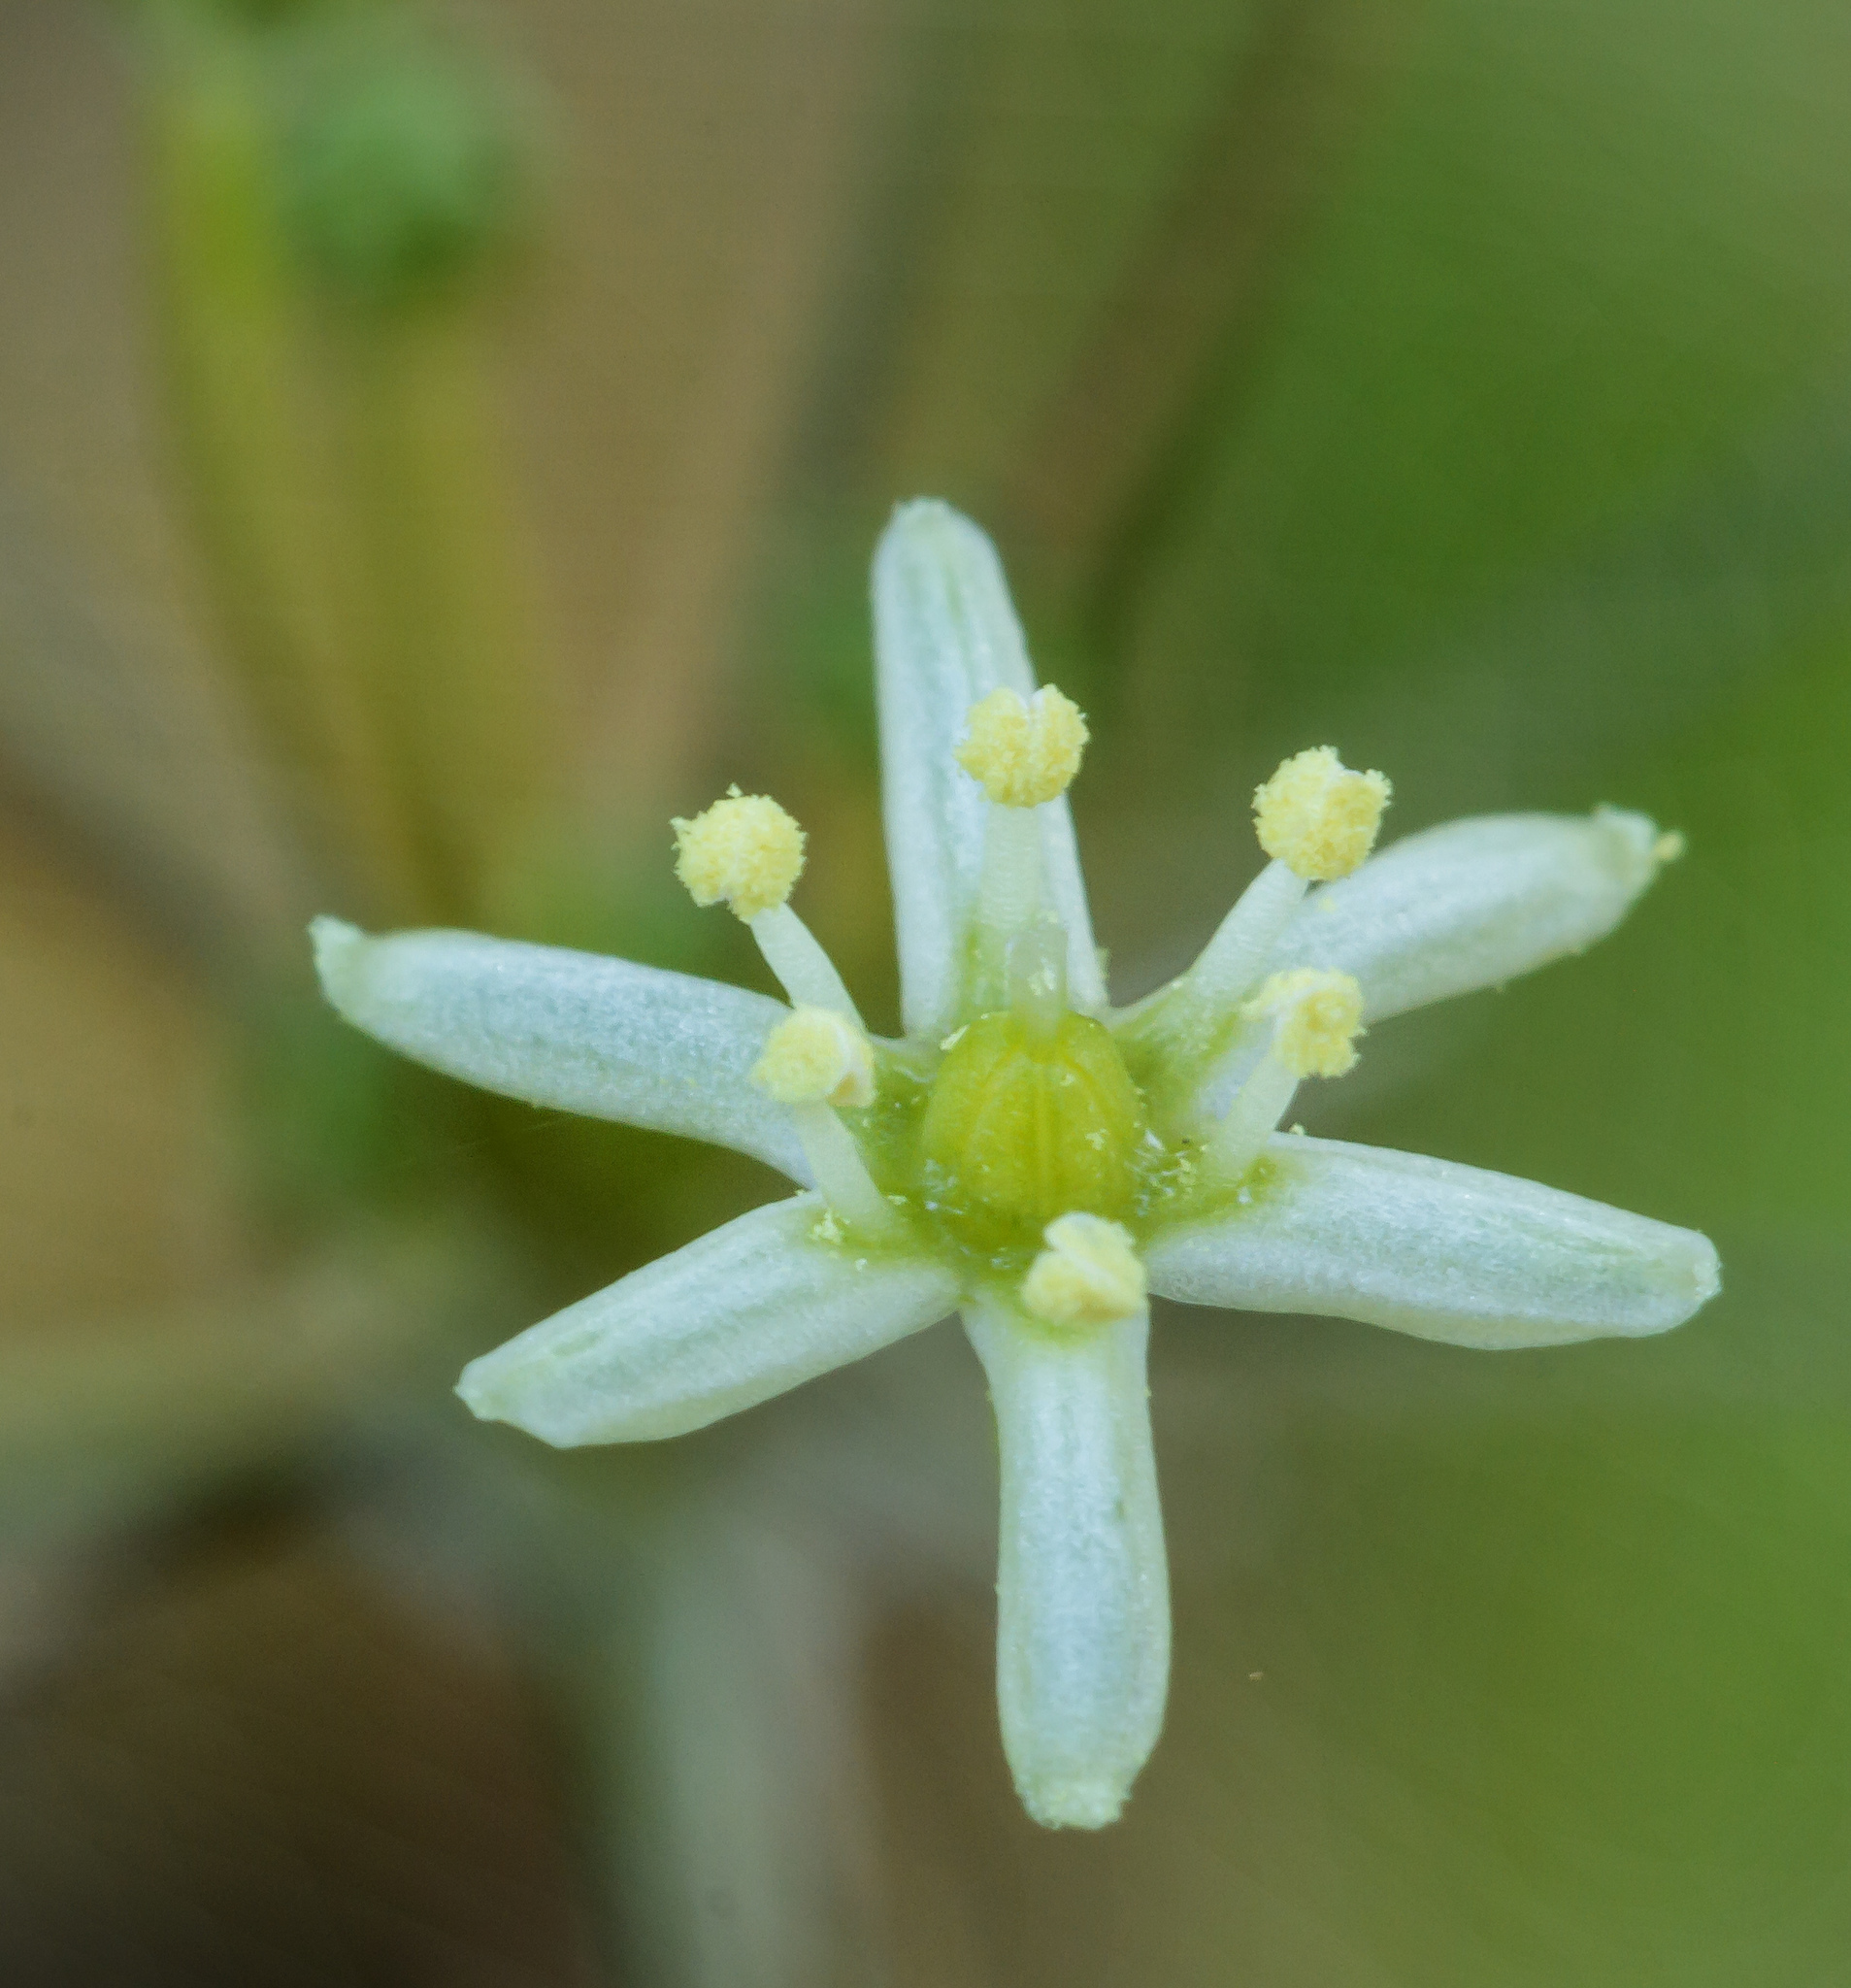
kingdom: Plantae
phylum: Tracheophyta
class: Liliopsida
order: Asparagales
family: Asparagaceae
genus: Muilla
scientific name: Muilla maritima
